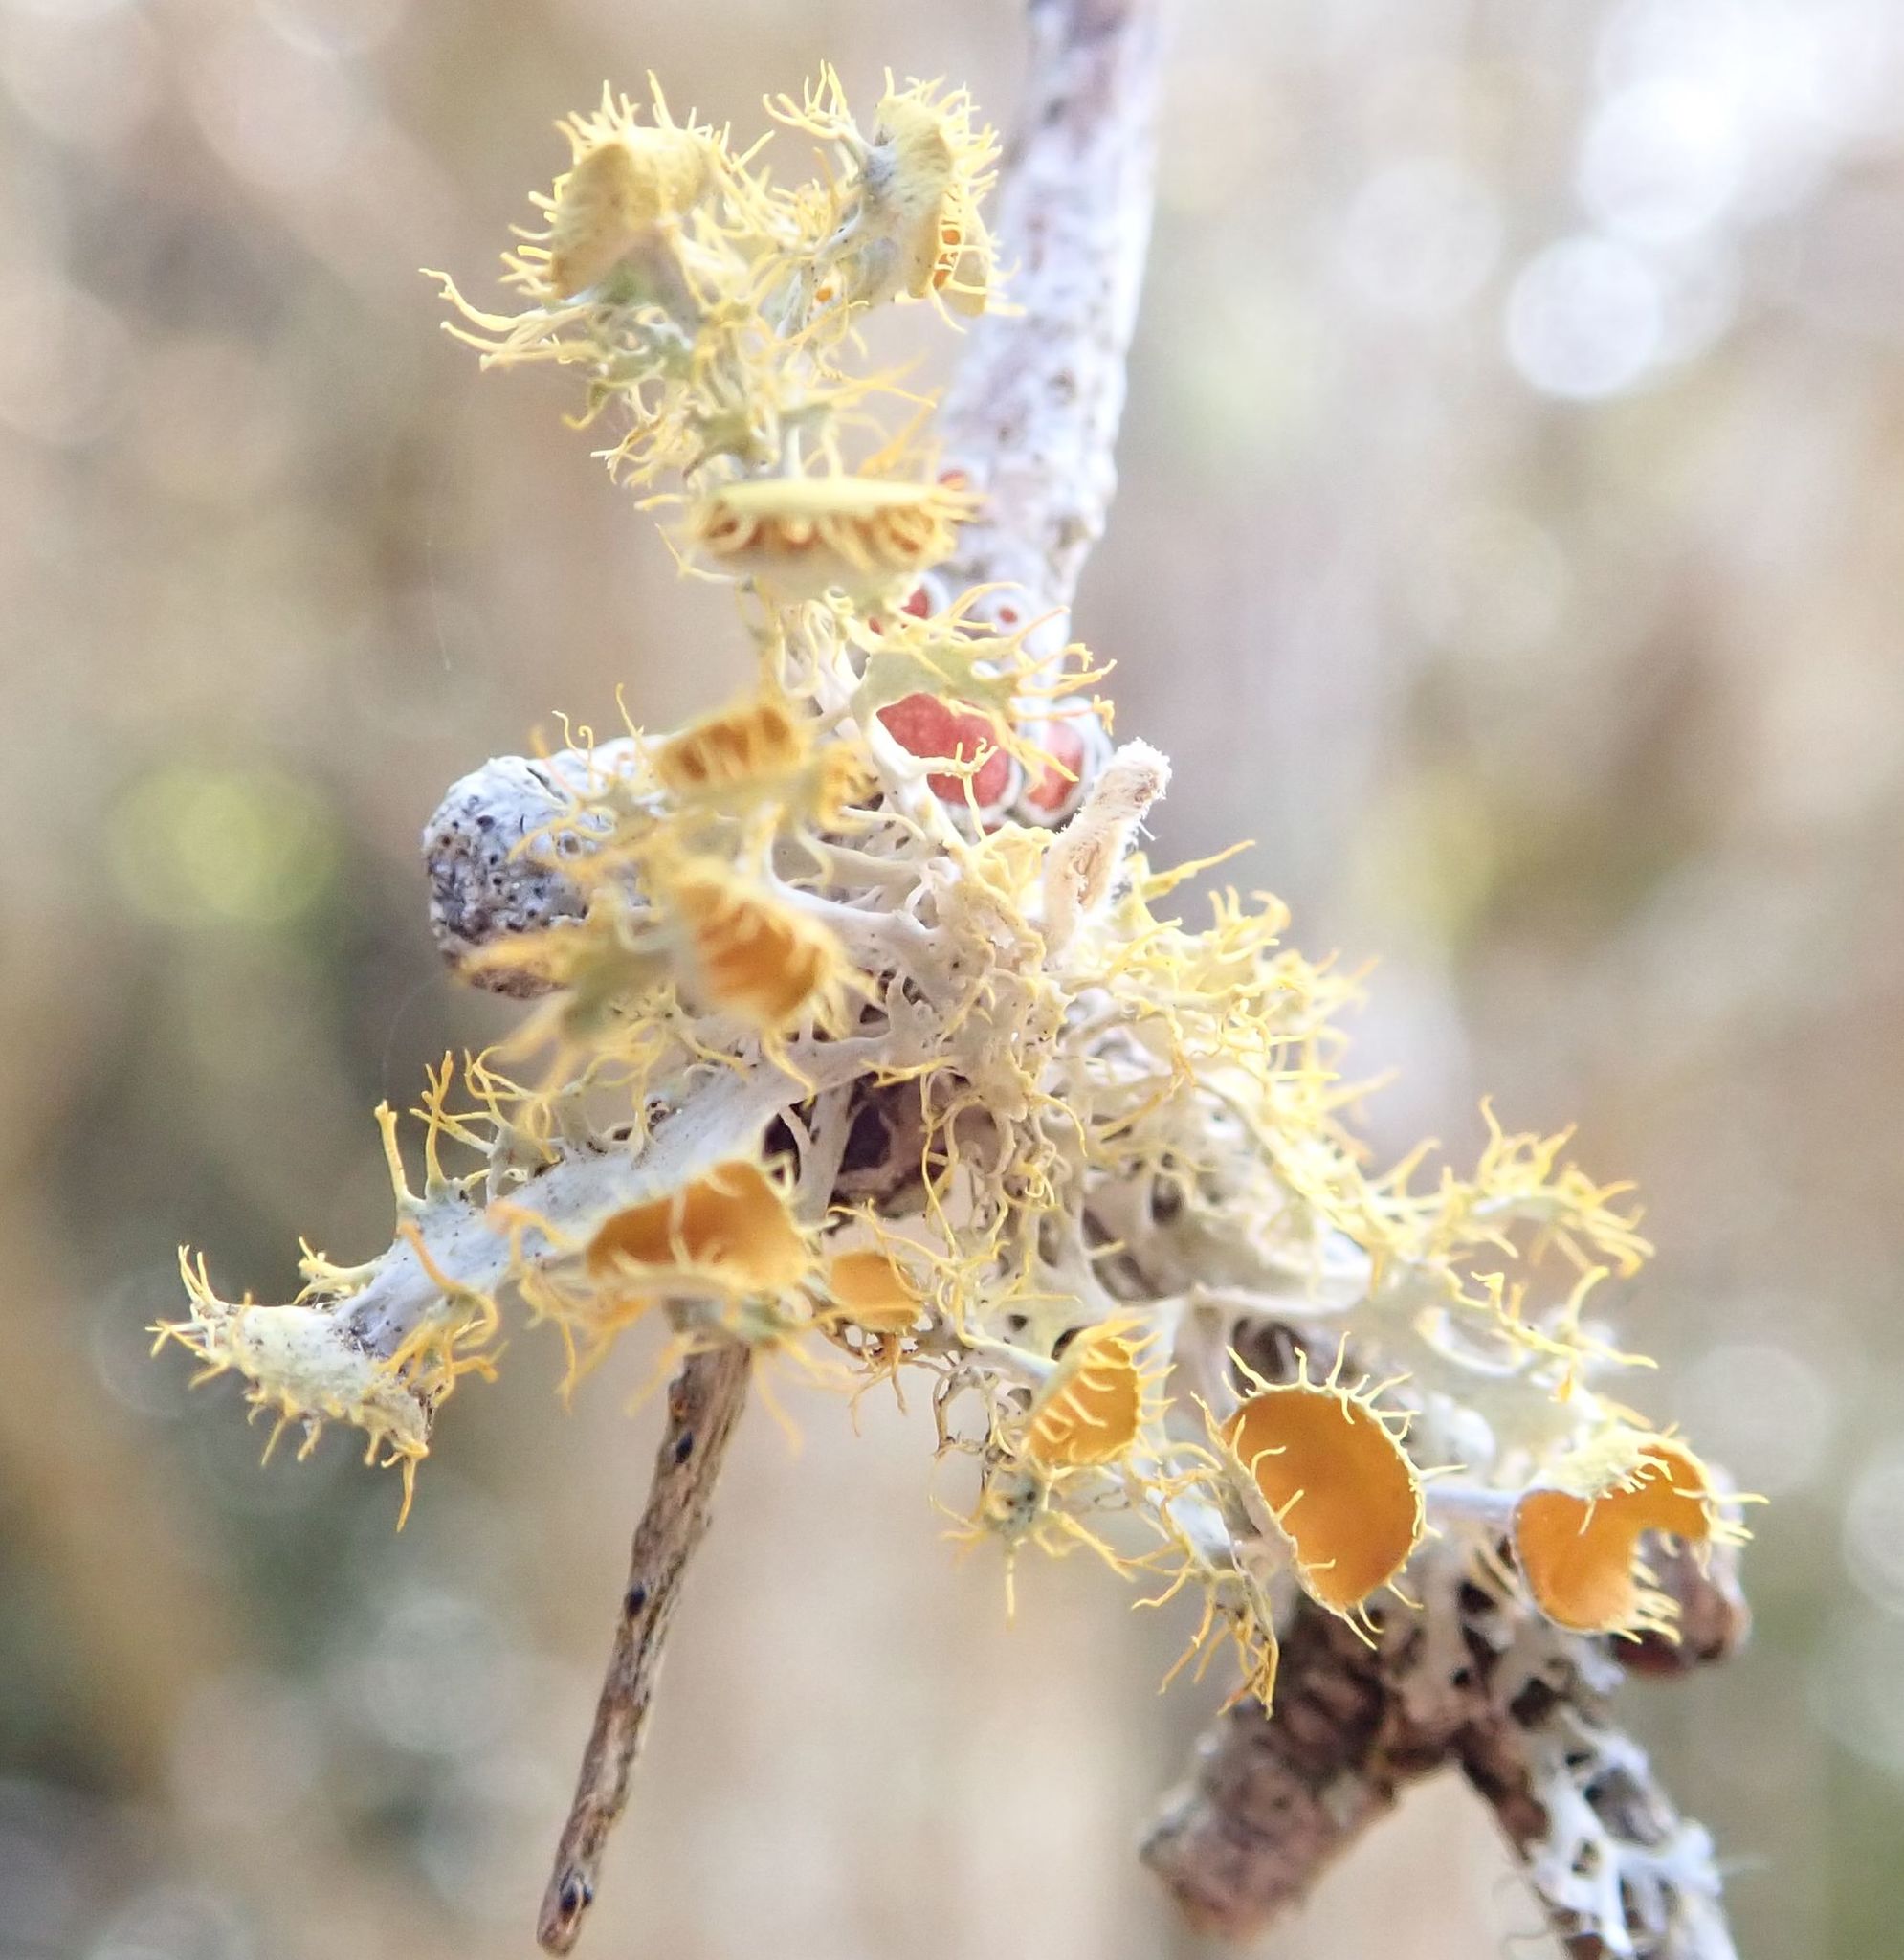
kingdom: Fungi
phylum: Ascomycota
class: Lecanoromycetes
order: Teloschistales
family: Teloschistaceae
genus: Niorma
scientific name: Niorma chrysophthalma
